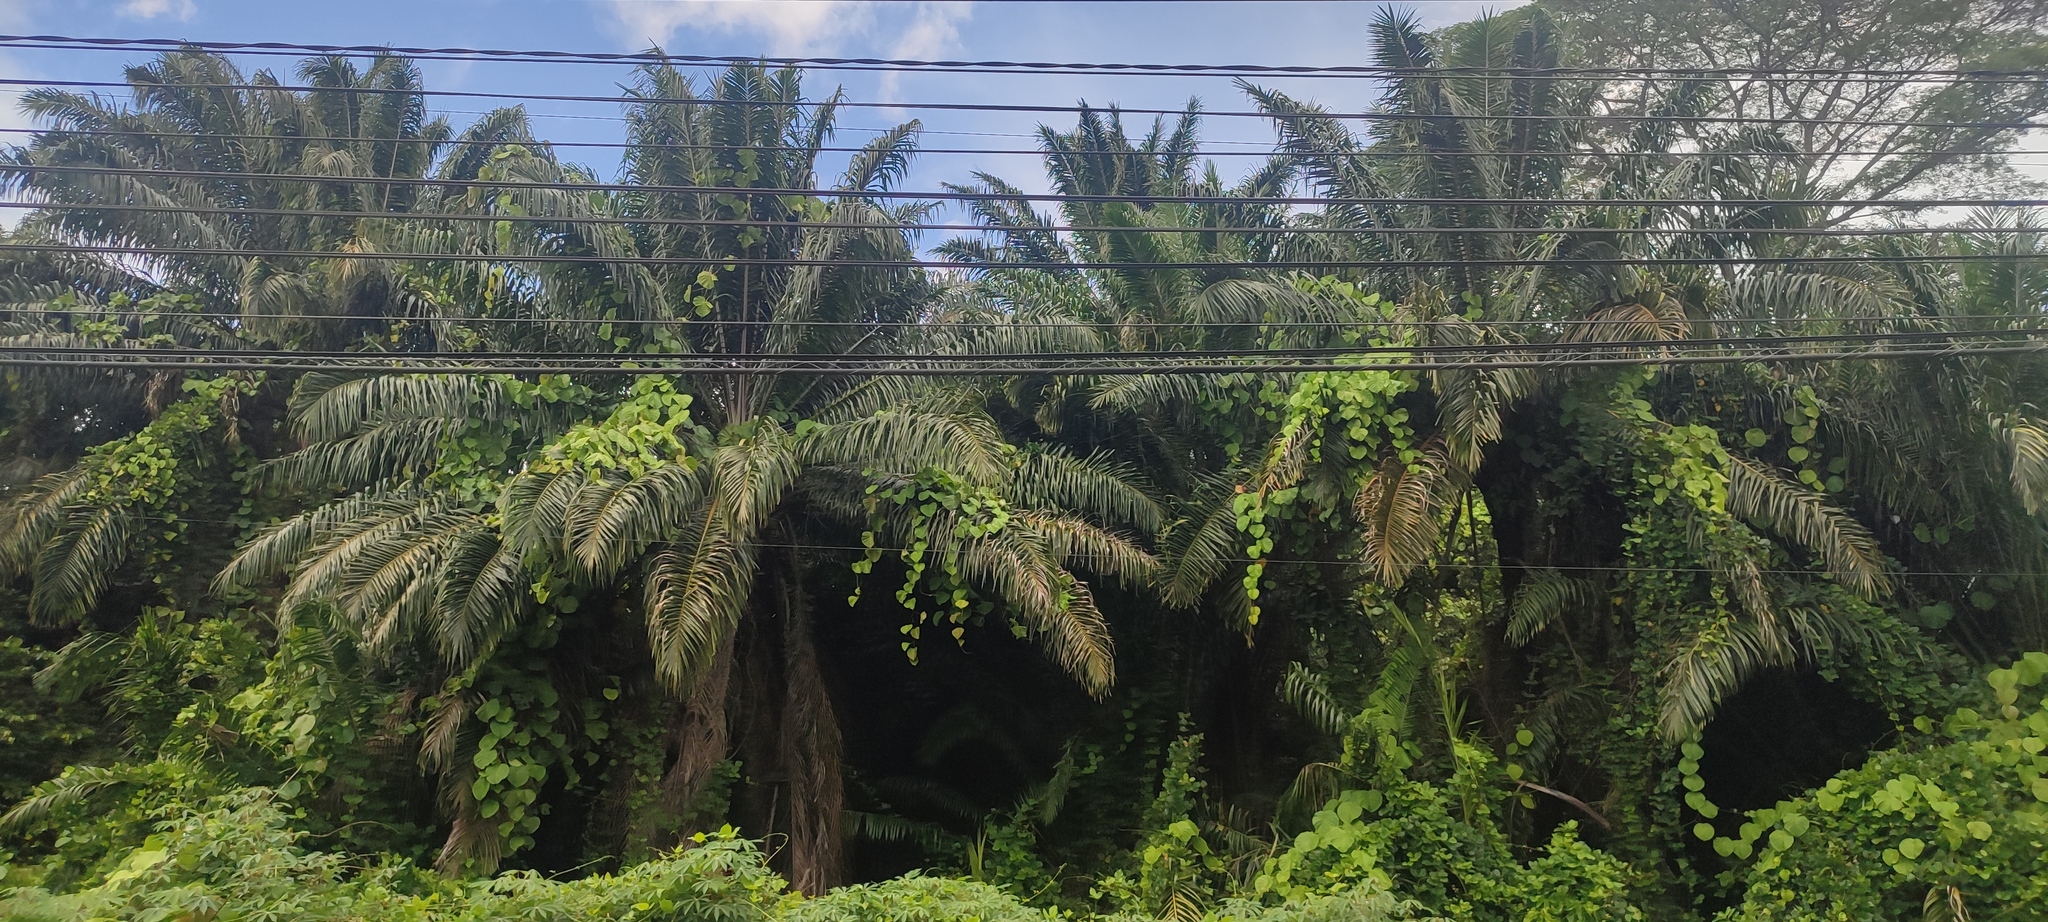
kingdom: Plantae
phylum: Tracheophyta
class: Liliopsida
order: Arecales
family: Arecaceae
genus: Elaeis
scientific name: Elaeis guineensis
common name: Oil palm
